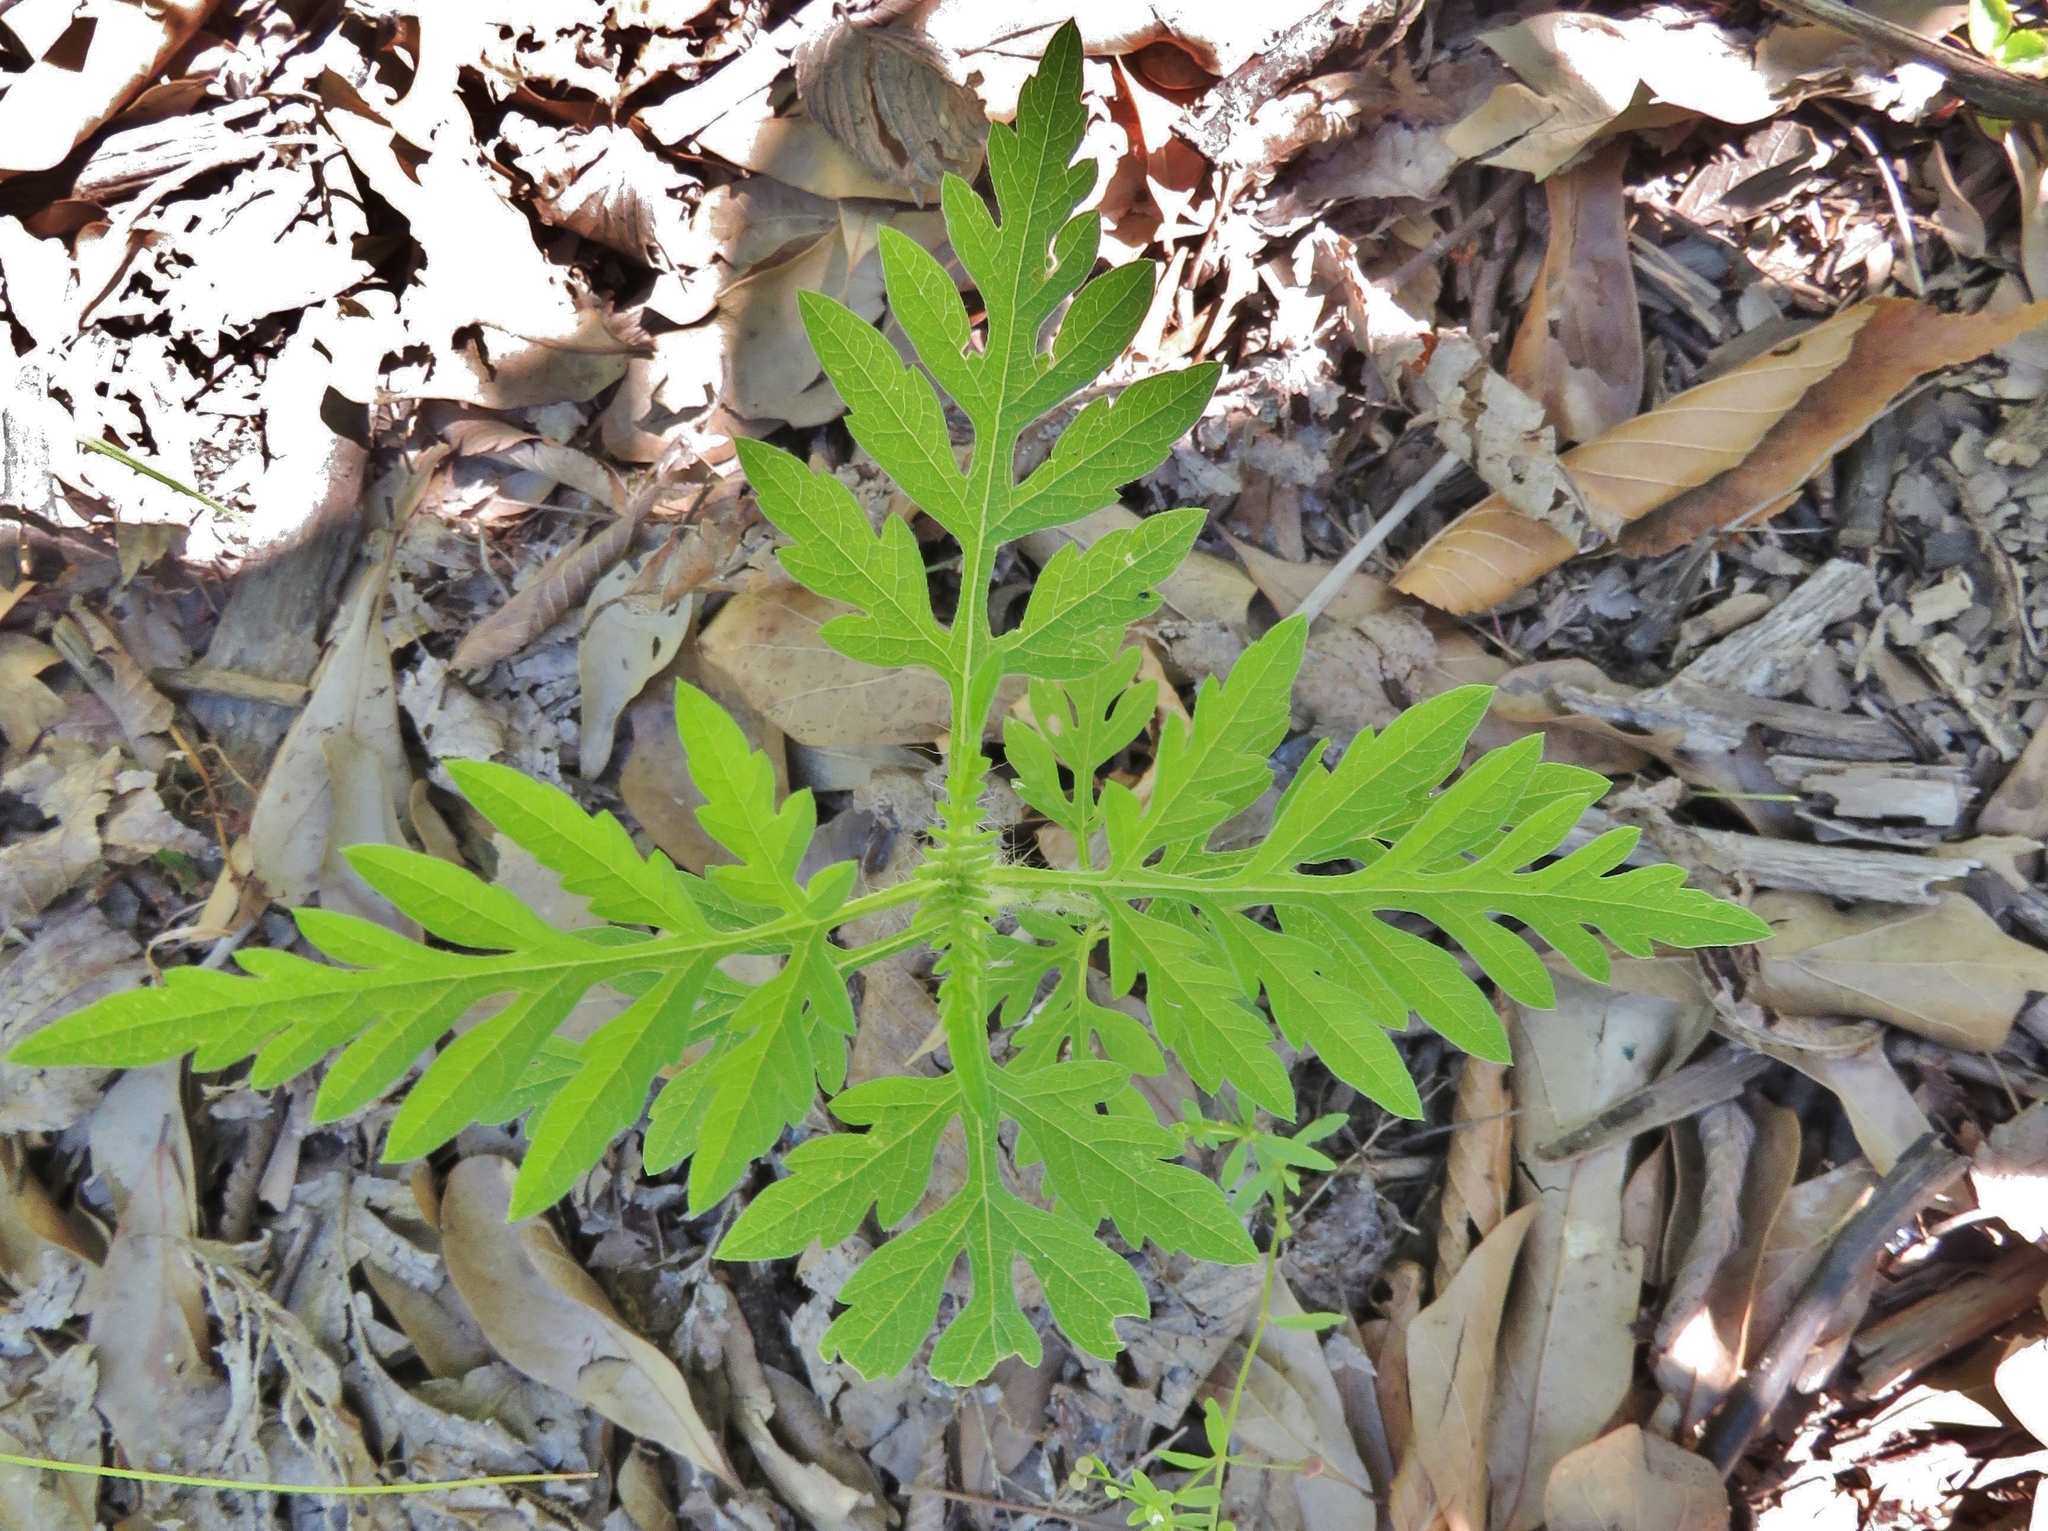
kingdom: Plantae
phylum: Tracheophyta
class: Magnoliopsida
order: Asterales
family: Asteraceae
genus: Ambrosia
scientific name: Ambrosia psilostachya
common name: Perennial ragweed
